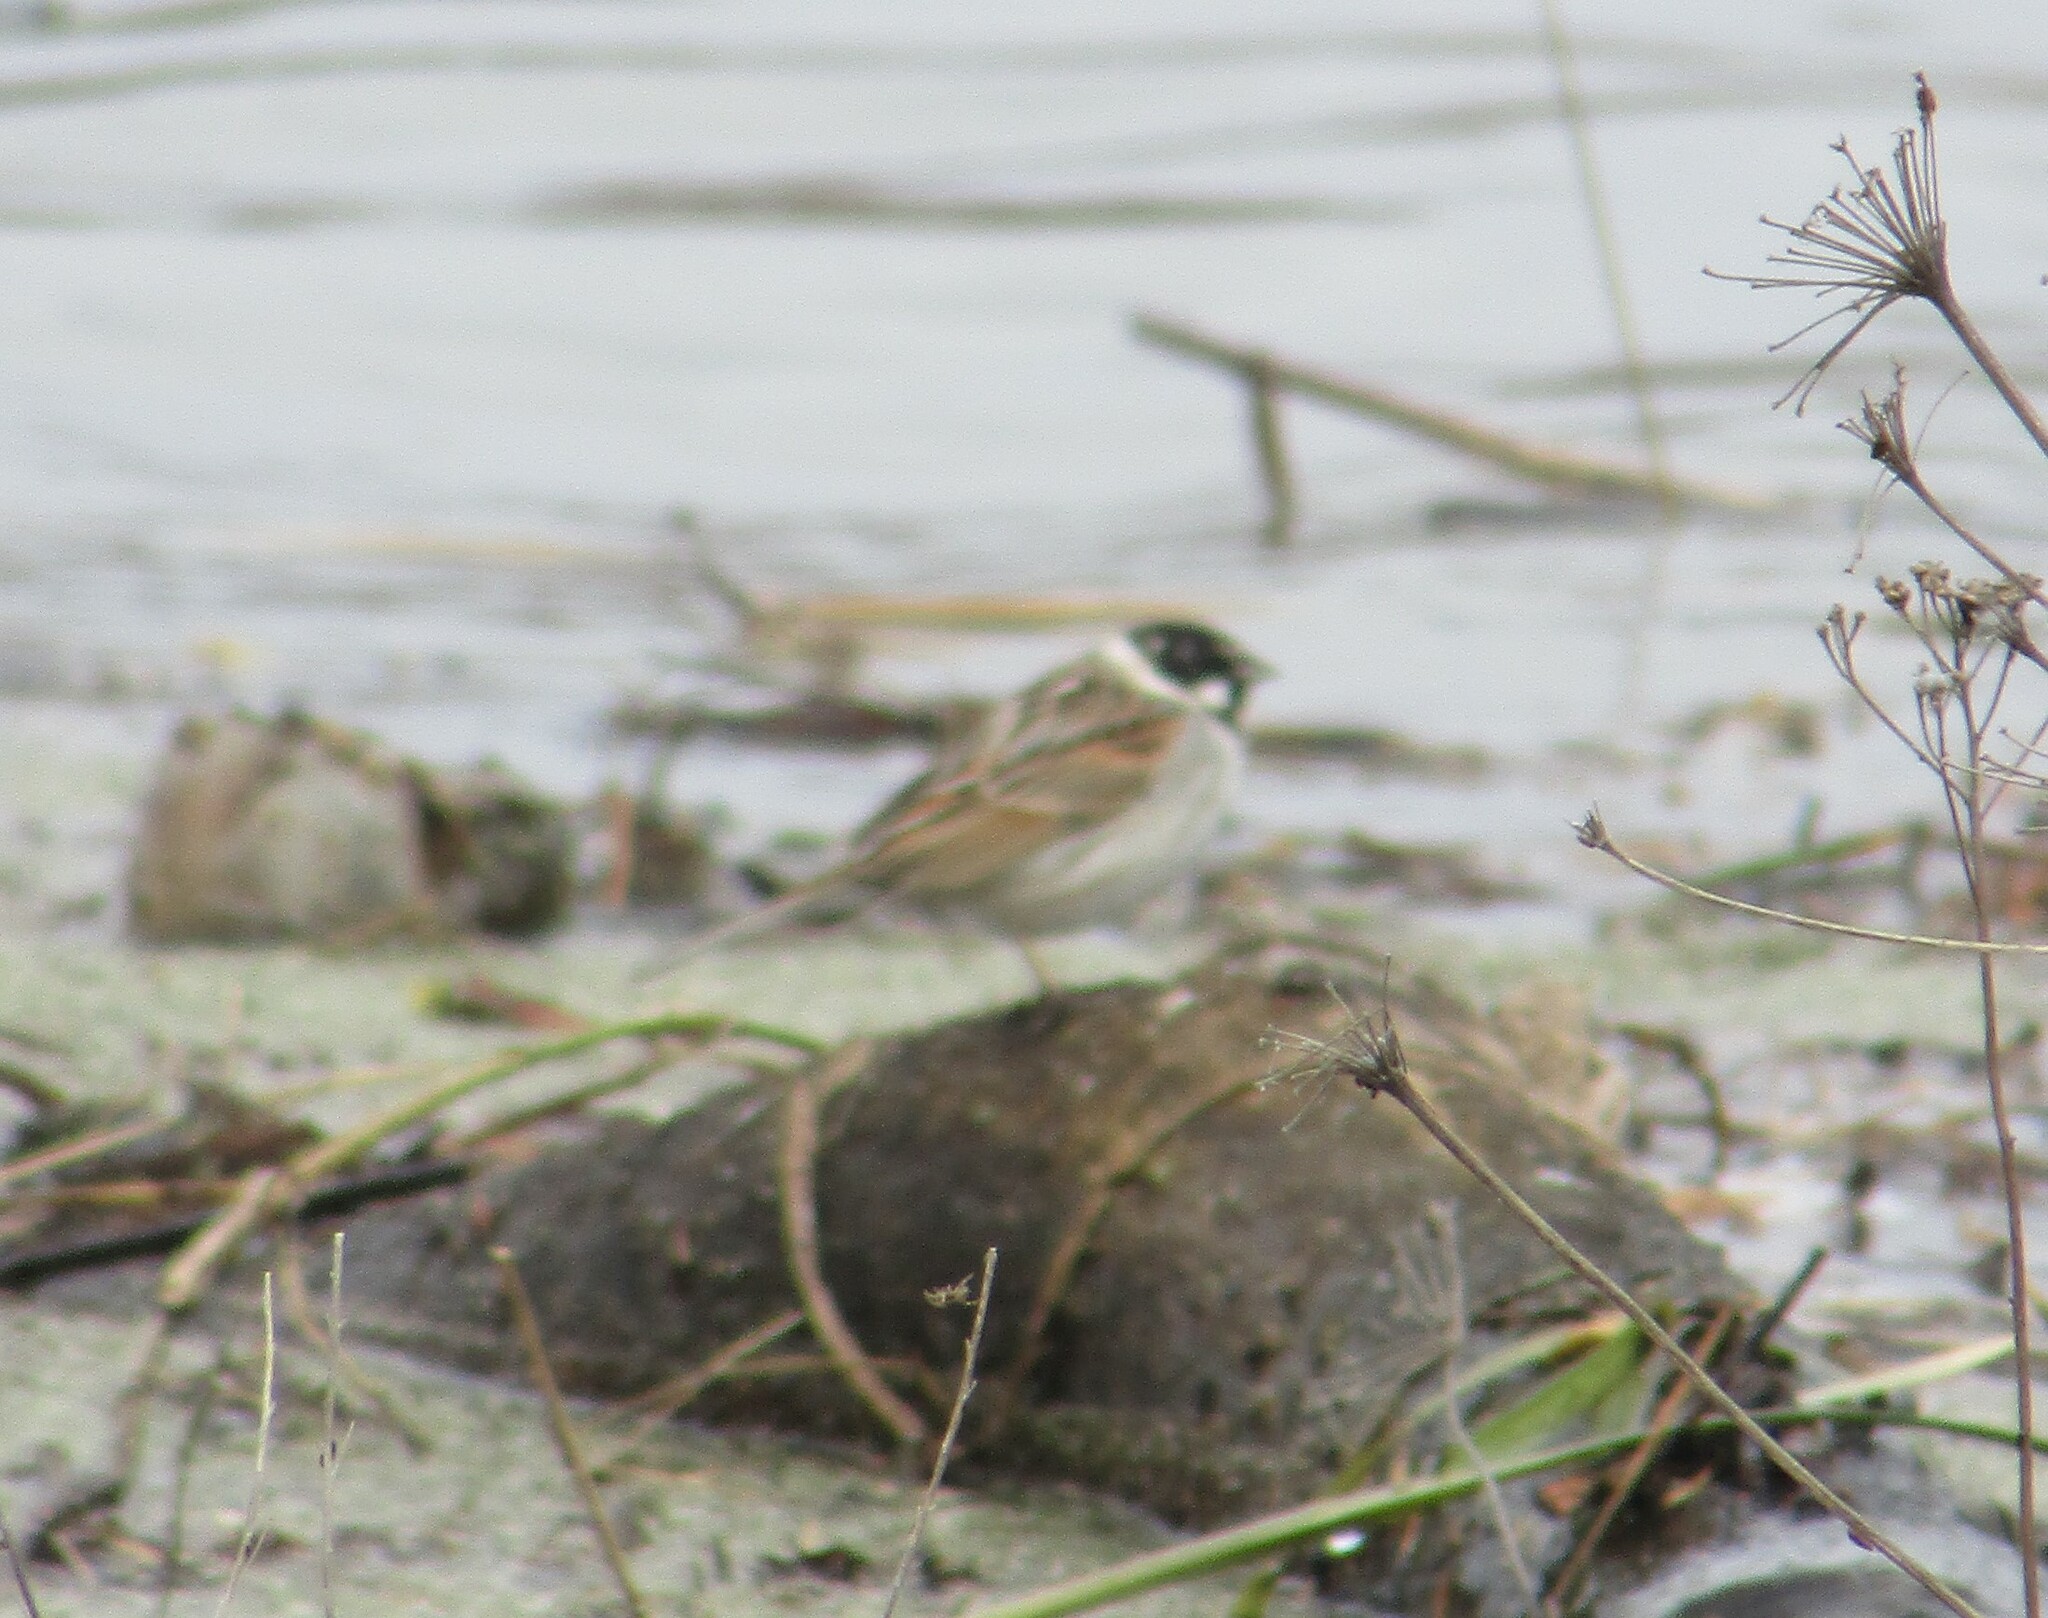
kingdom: Animalia
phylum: Chordata
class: Aves
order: Passeriformes
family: Emberizidae
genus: Emberiza
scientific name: Emberiza schoeniclus
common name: Reed bunting
